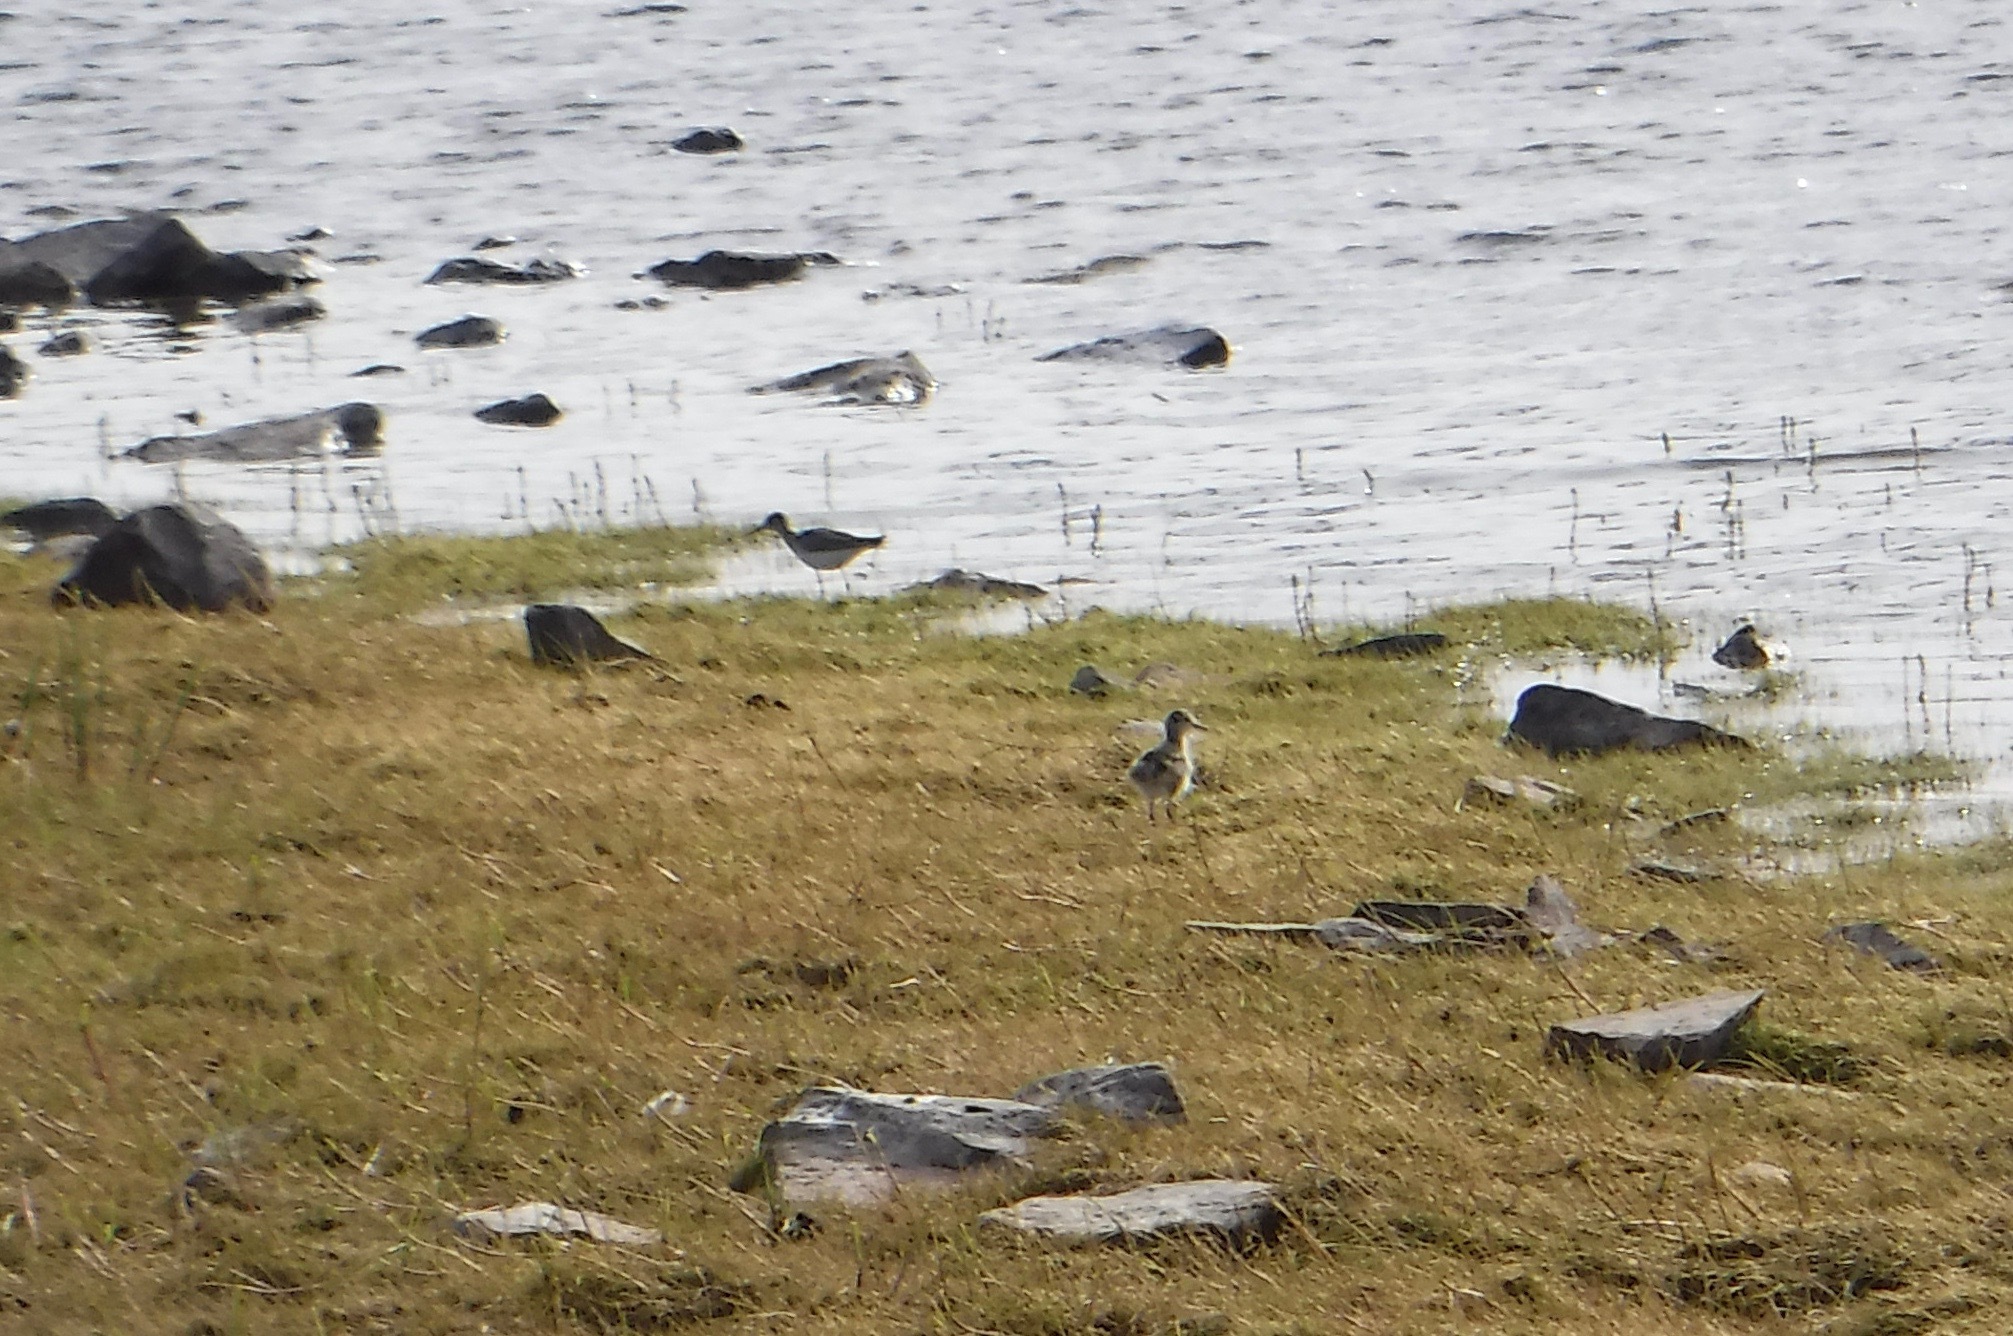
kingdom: Animalia
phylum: Chordata
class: Aves
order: Charadriiformes
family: Scolopacidae
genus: Tringa
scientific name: Tringa flavipes
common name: Lesser yellowlegs
